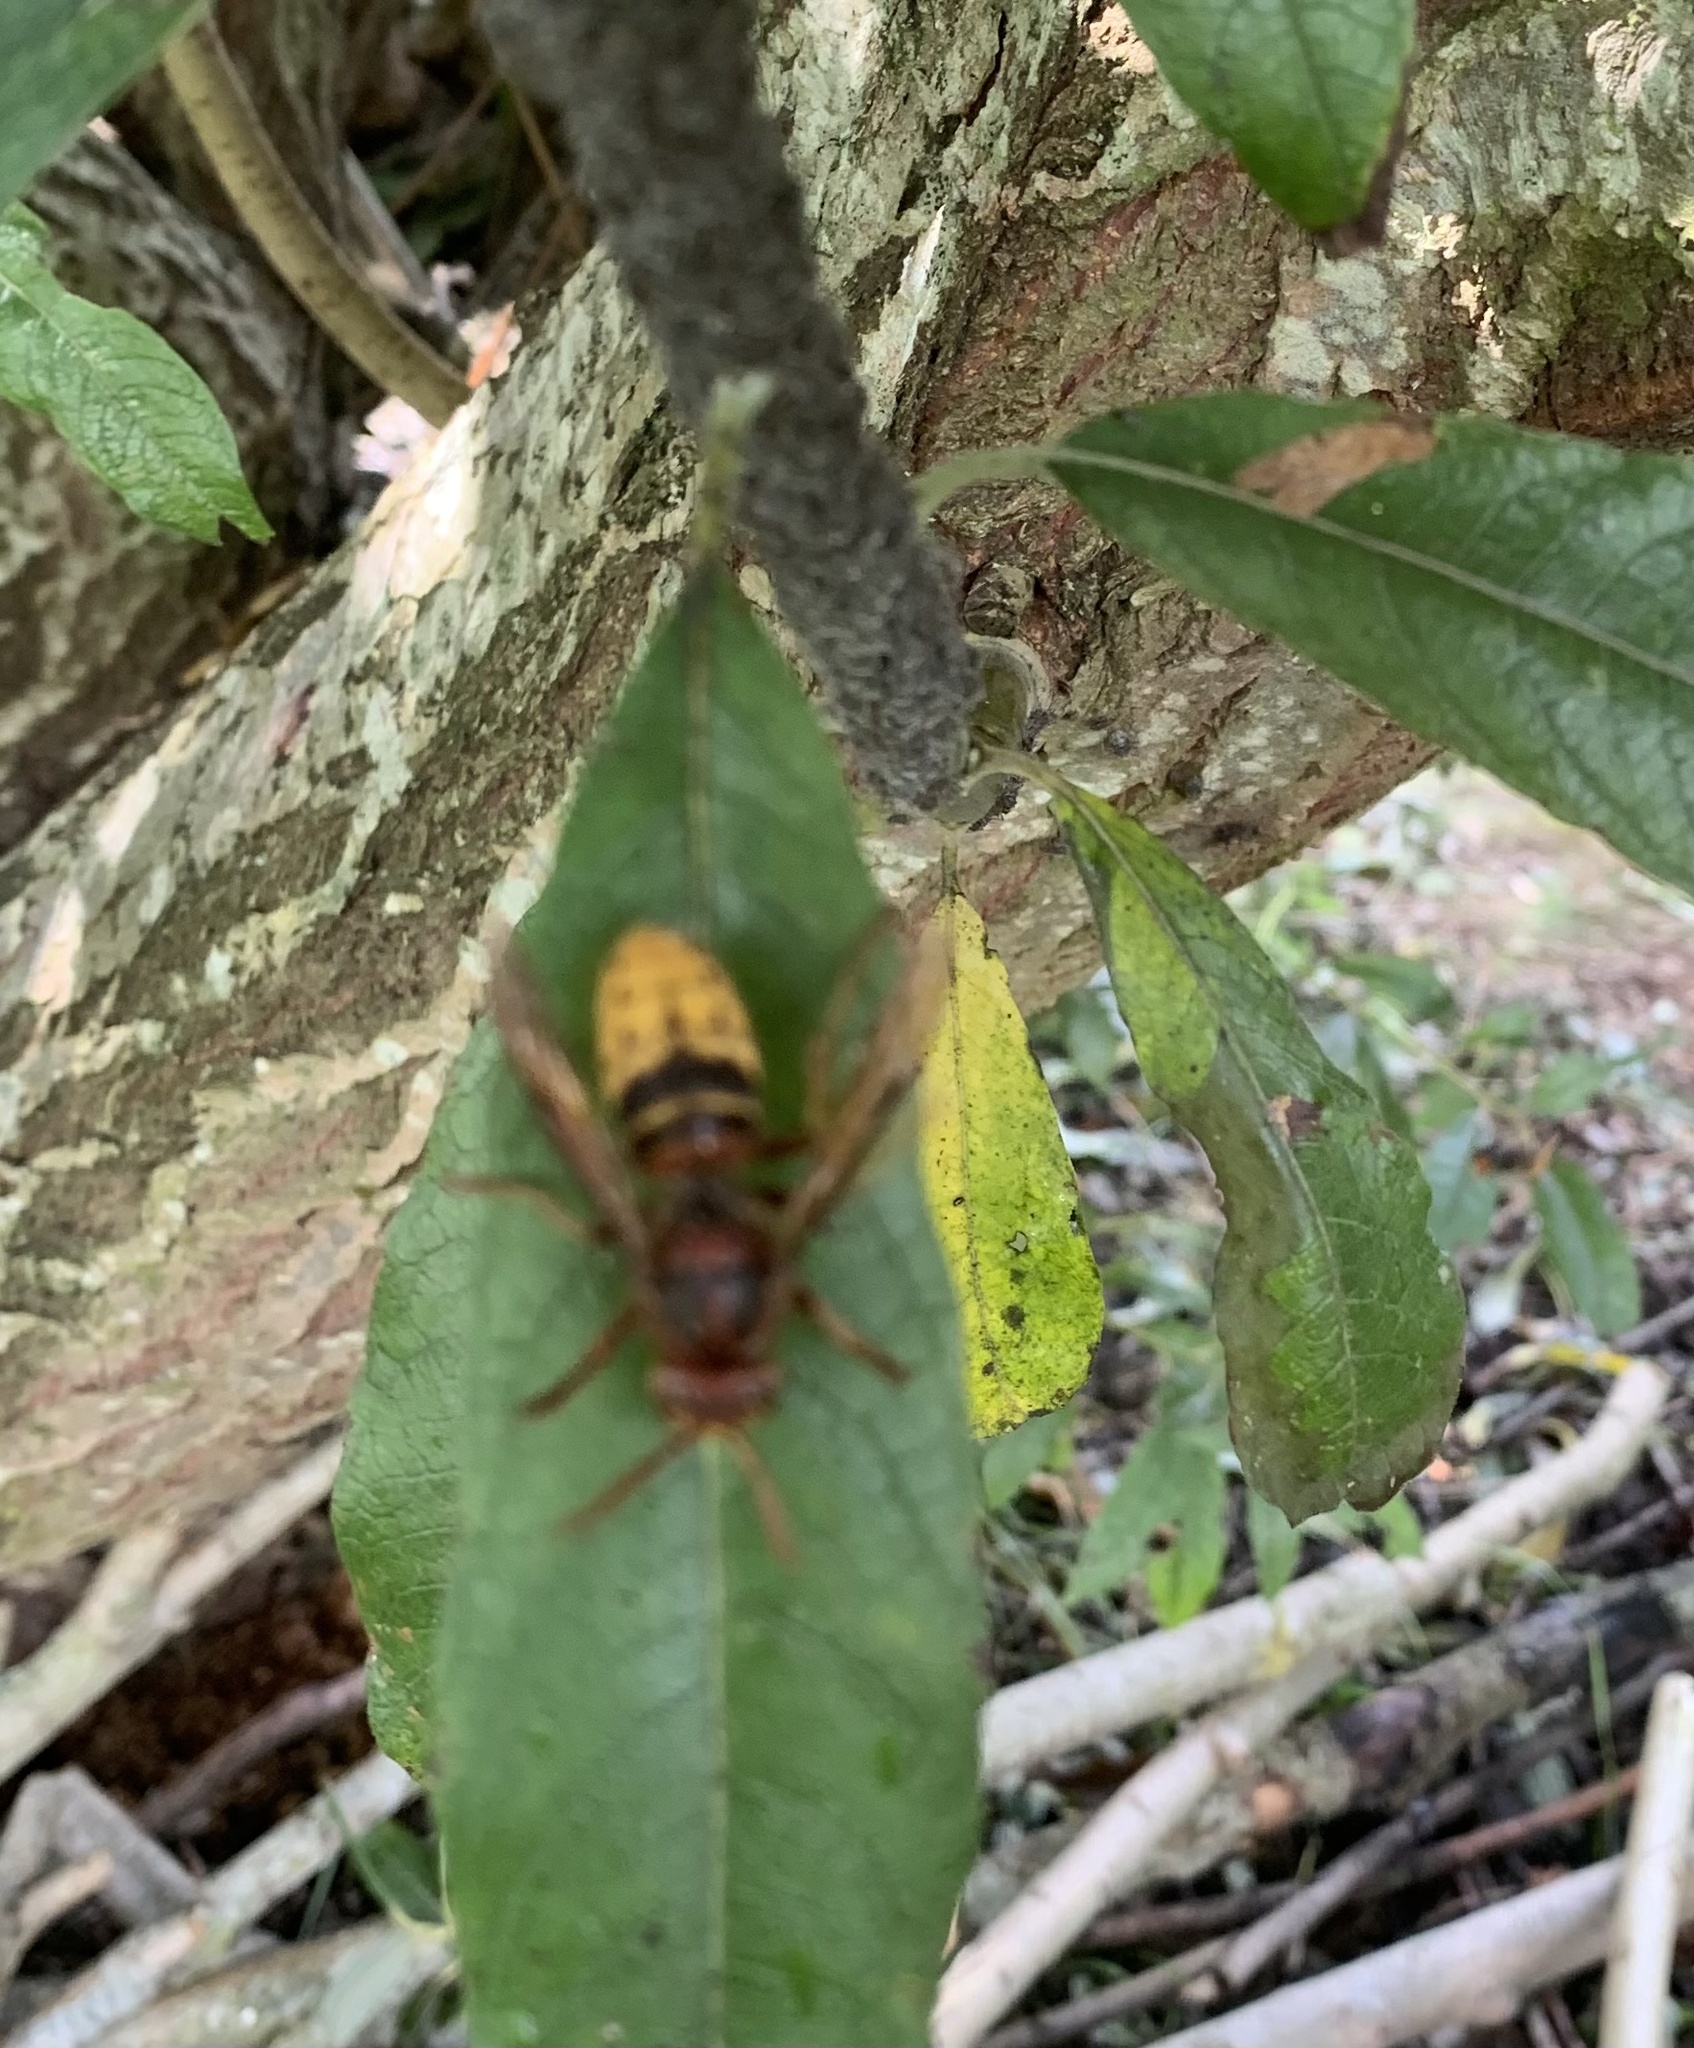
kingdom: Animalia
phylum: Arthropoda
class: Insecta
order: Hymenoptera
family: Vespidae
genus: Vespa
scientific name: Vespa crabro
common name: Hornet
